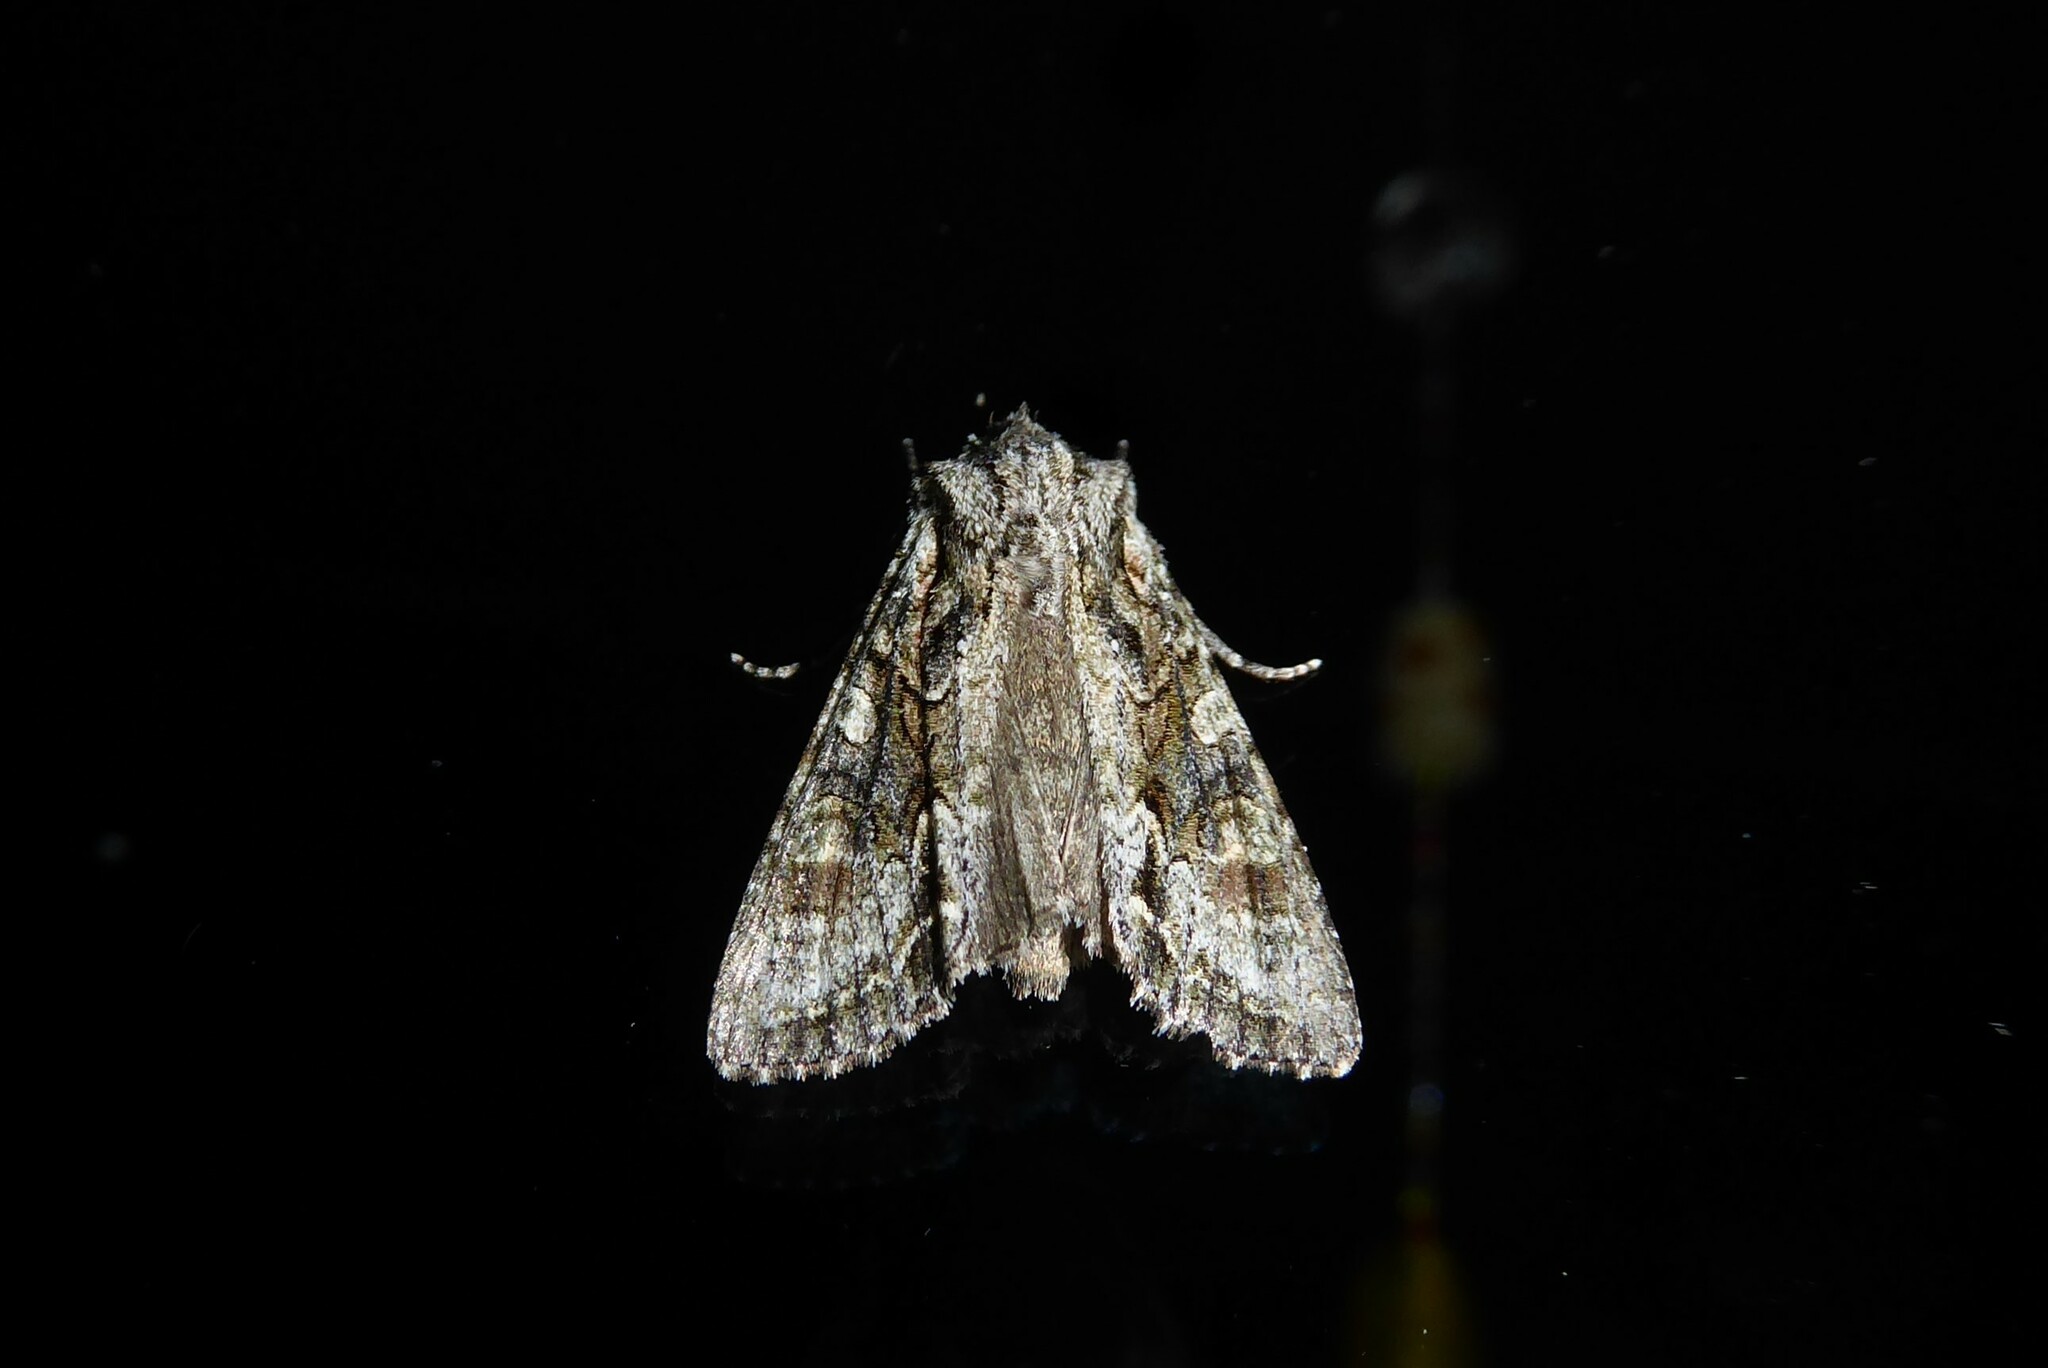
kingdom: Animalia
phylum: Arthropoda
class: Insecta
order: Lepidoptera
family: Noctuidae
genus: Ichneutica
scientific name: Ichneutica mutans
